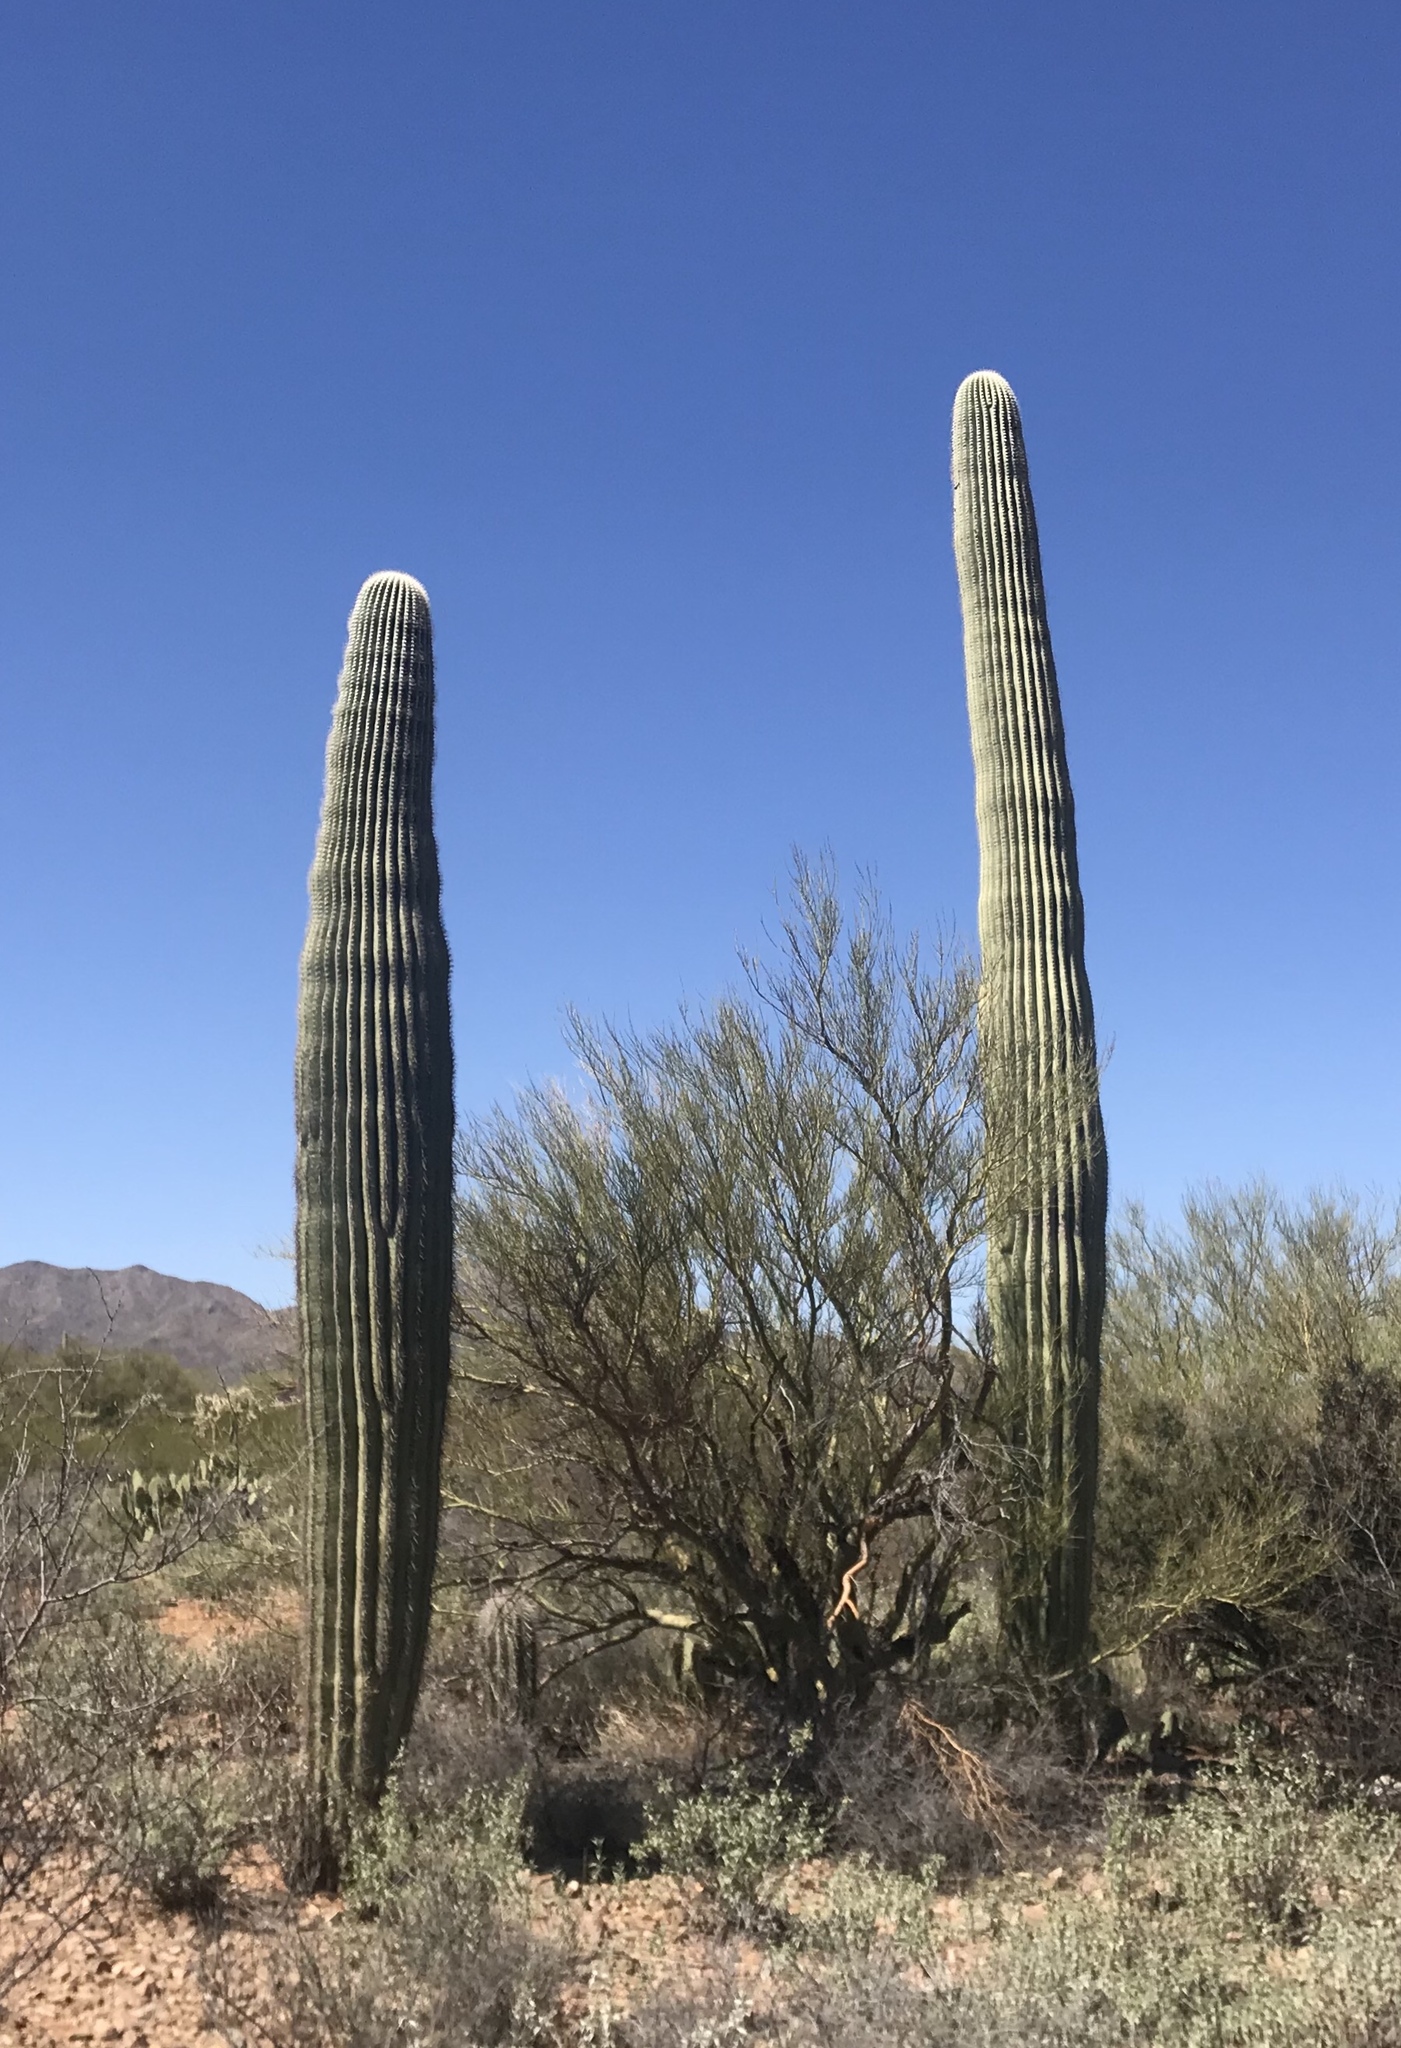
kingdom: Plantae
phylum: Tracheophyta
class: Magnoliopsida
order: Caryophyllales
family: Cactaceae
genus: Carnegiea
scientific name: Carnegiea gigantea
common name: Saguaro
